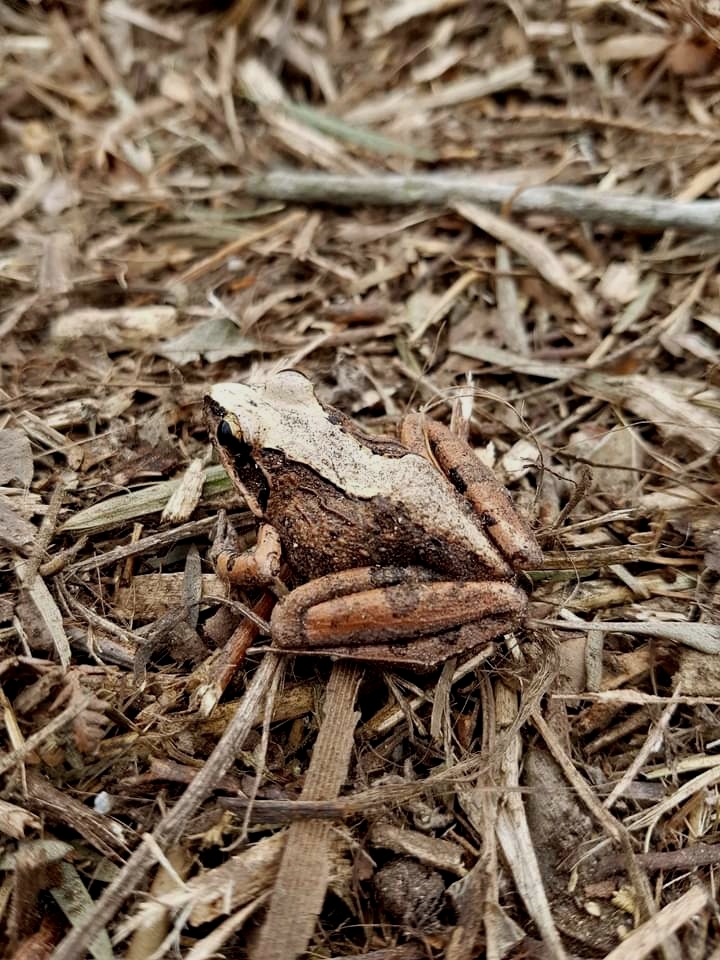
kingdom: Animalia
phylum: Chordata
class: Amphibia
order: Anura
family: Pyxicephalidae
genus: Strongylopus
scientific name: Strongylopus grayii
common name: Gray's stream frog
